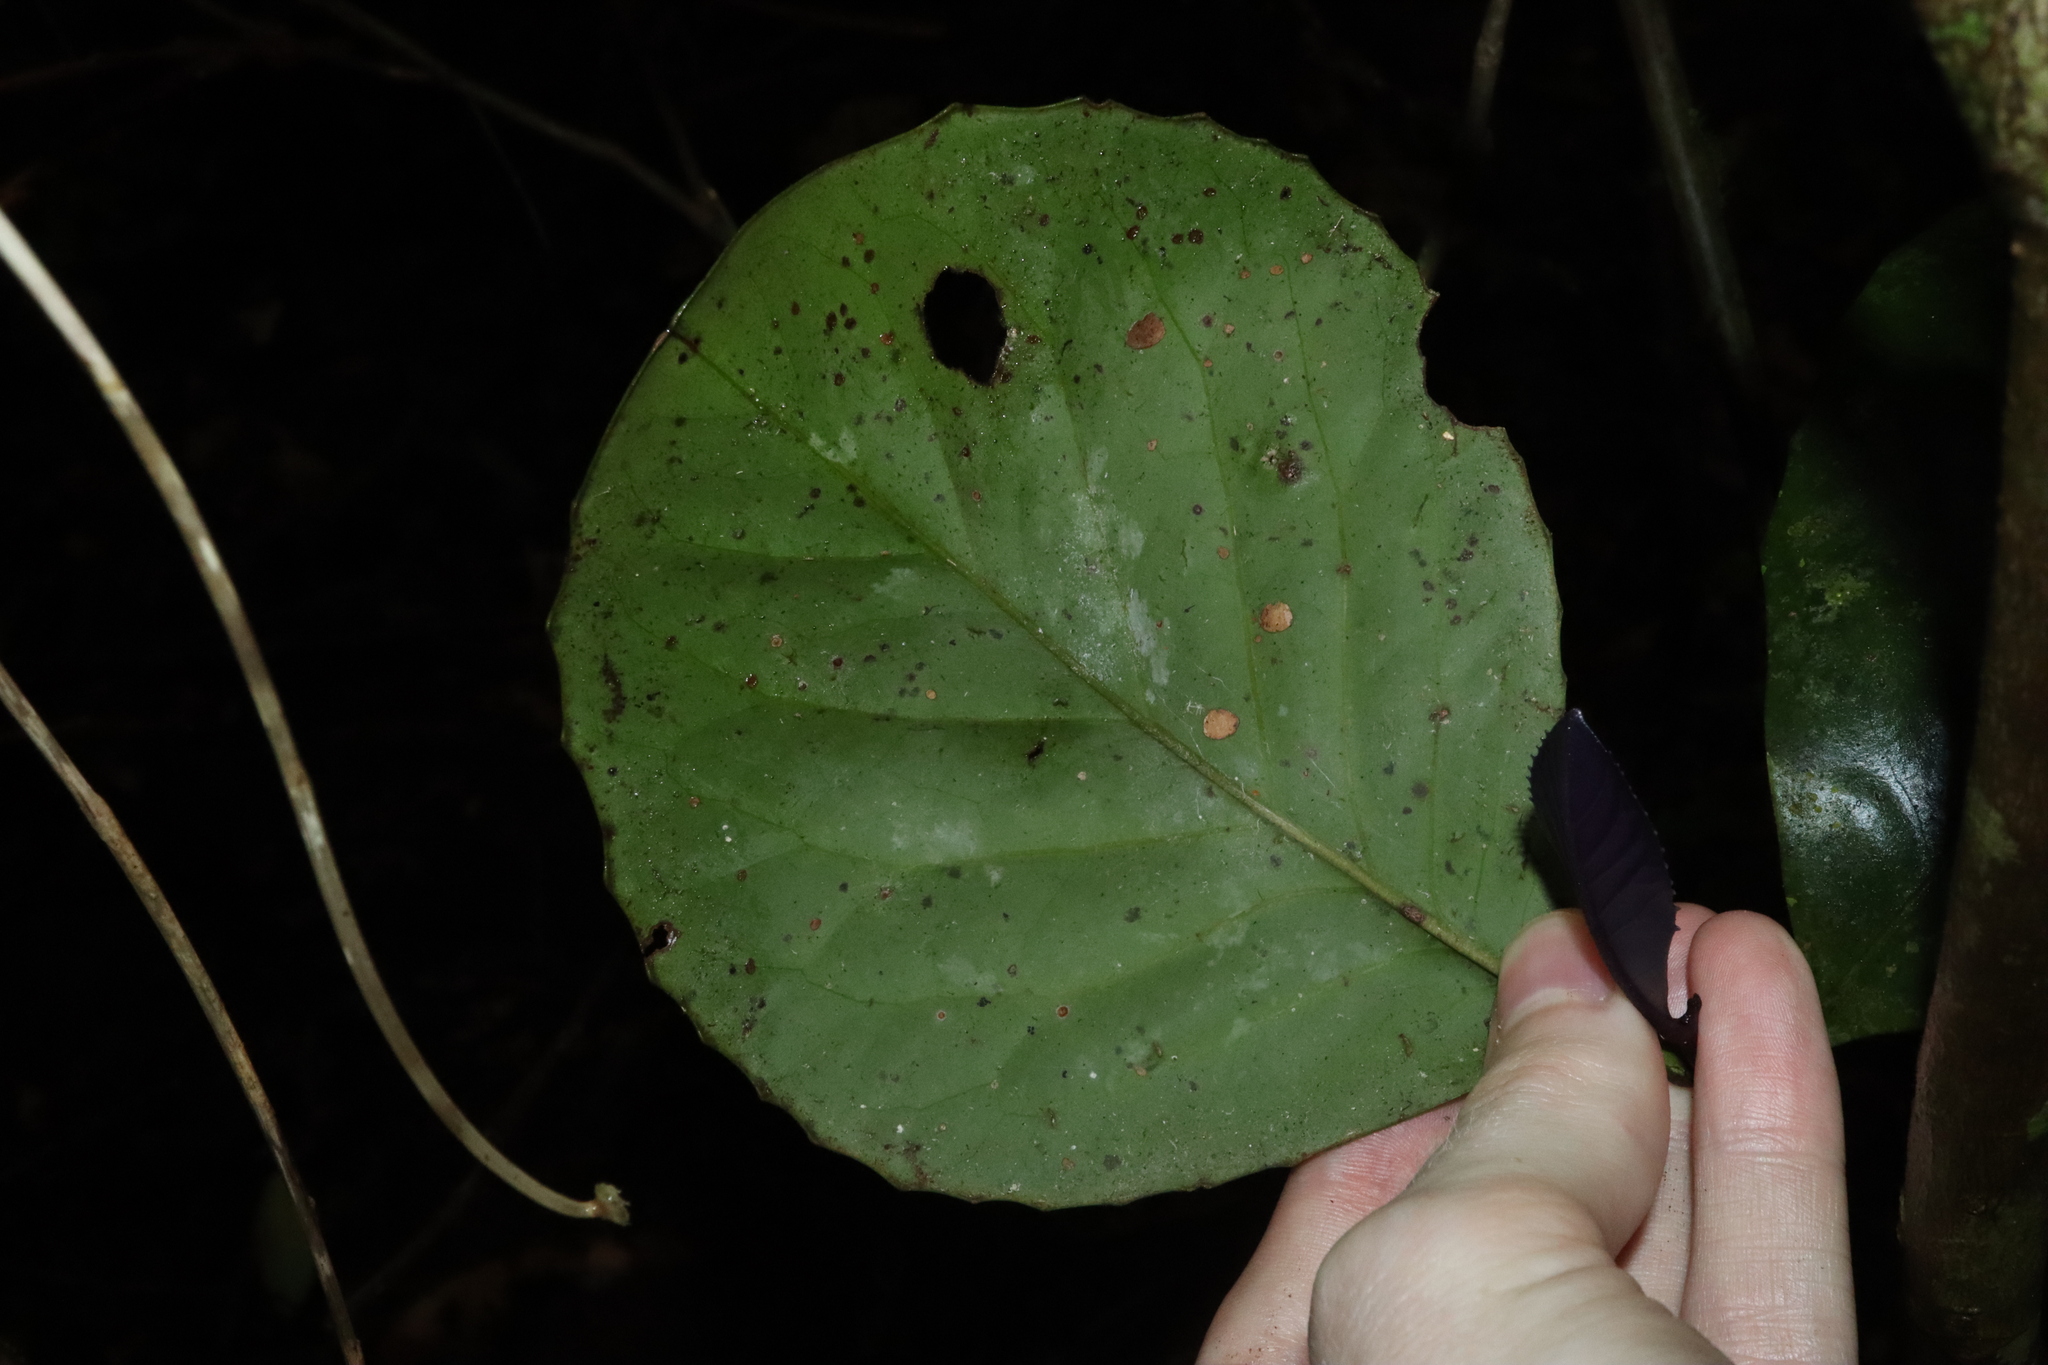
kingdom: Plantae
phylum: Tracheophyta
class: Magnoliopsida
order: Proteales
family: Proteaceae
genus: Hollandaea
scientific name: Hollandaea sayeriana
